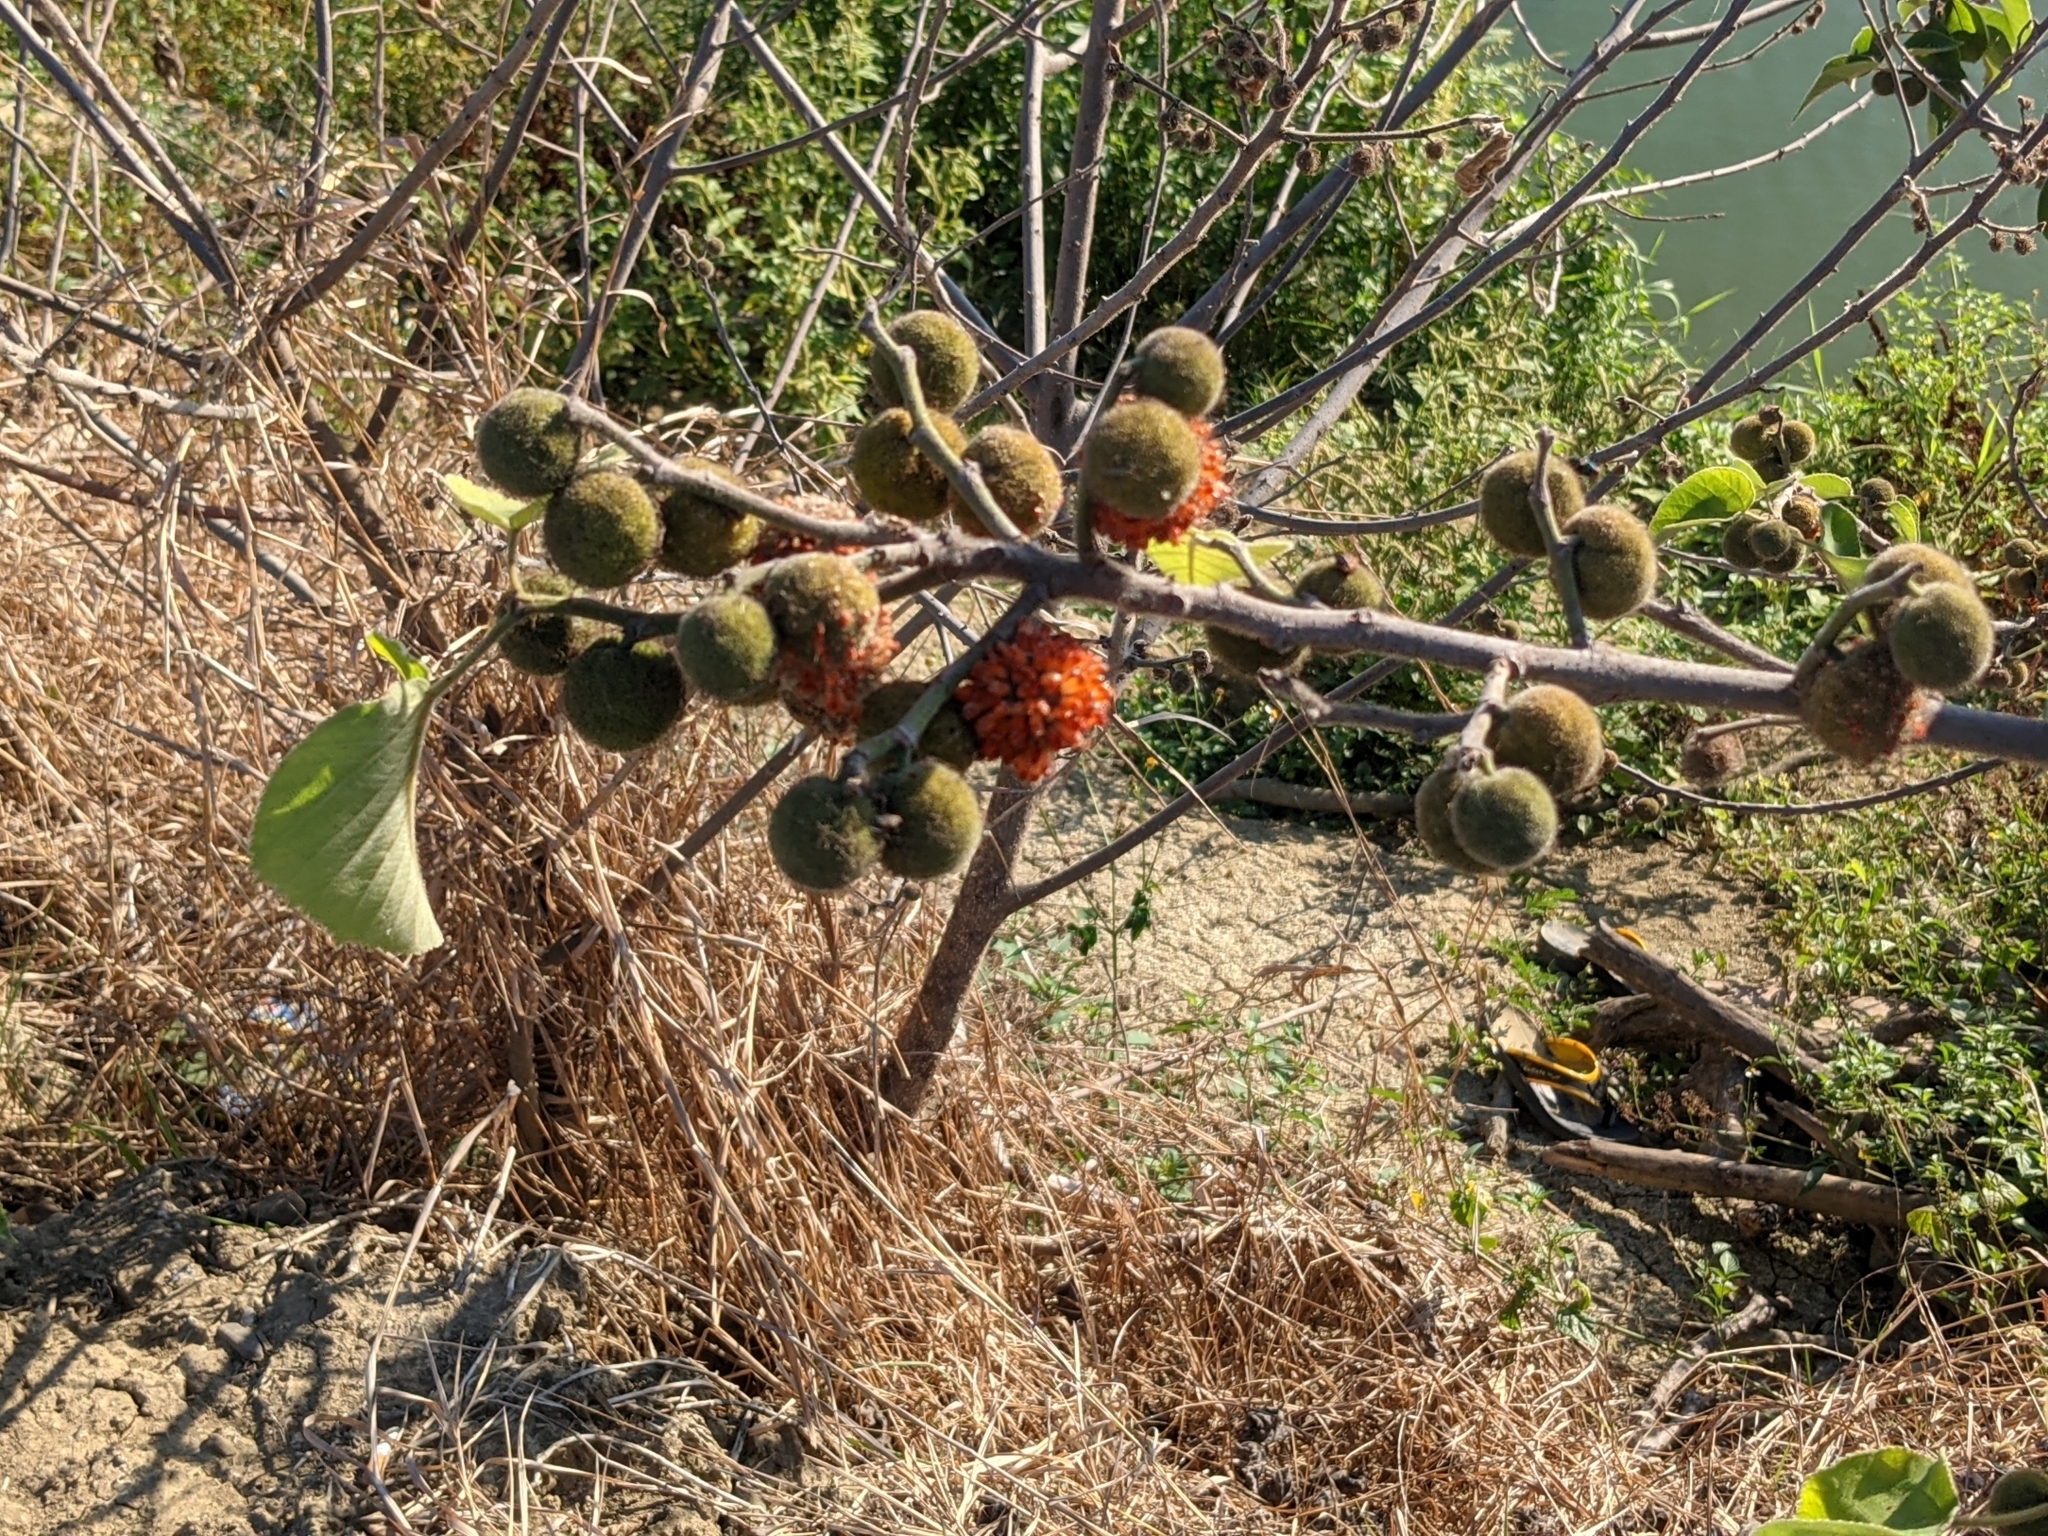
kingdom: Plantae
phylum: Tracheophyta
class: Magnoliopsida
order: Rosales
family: Moraceae
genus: Broussonetia
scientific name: Broussonetia papyrifera
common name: Paper mulberry
